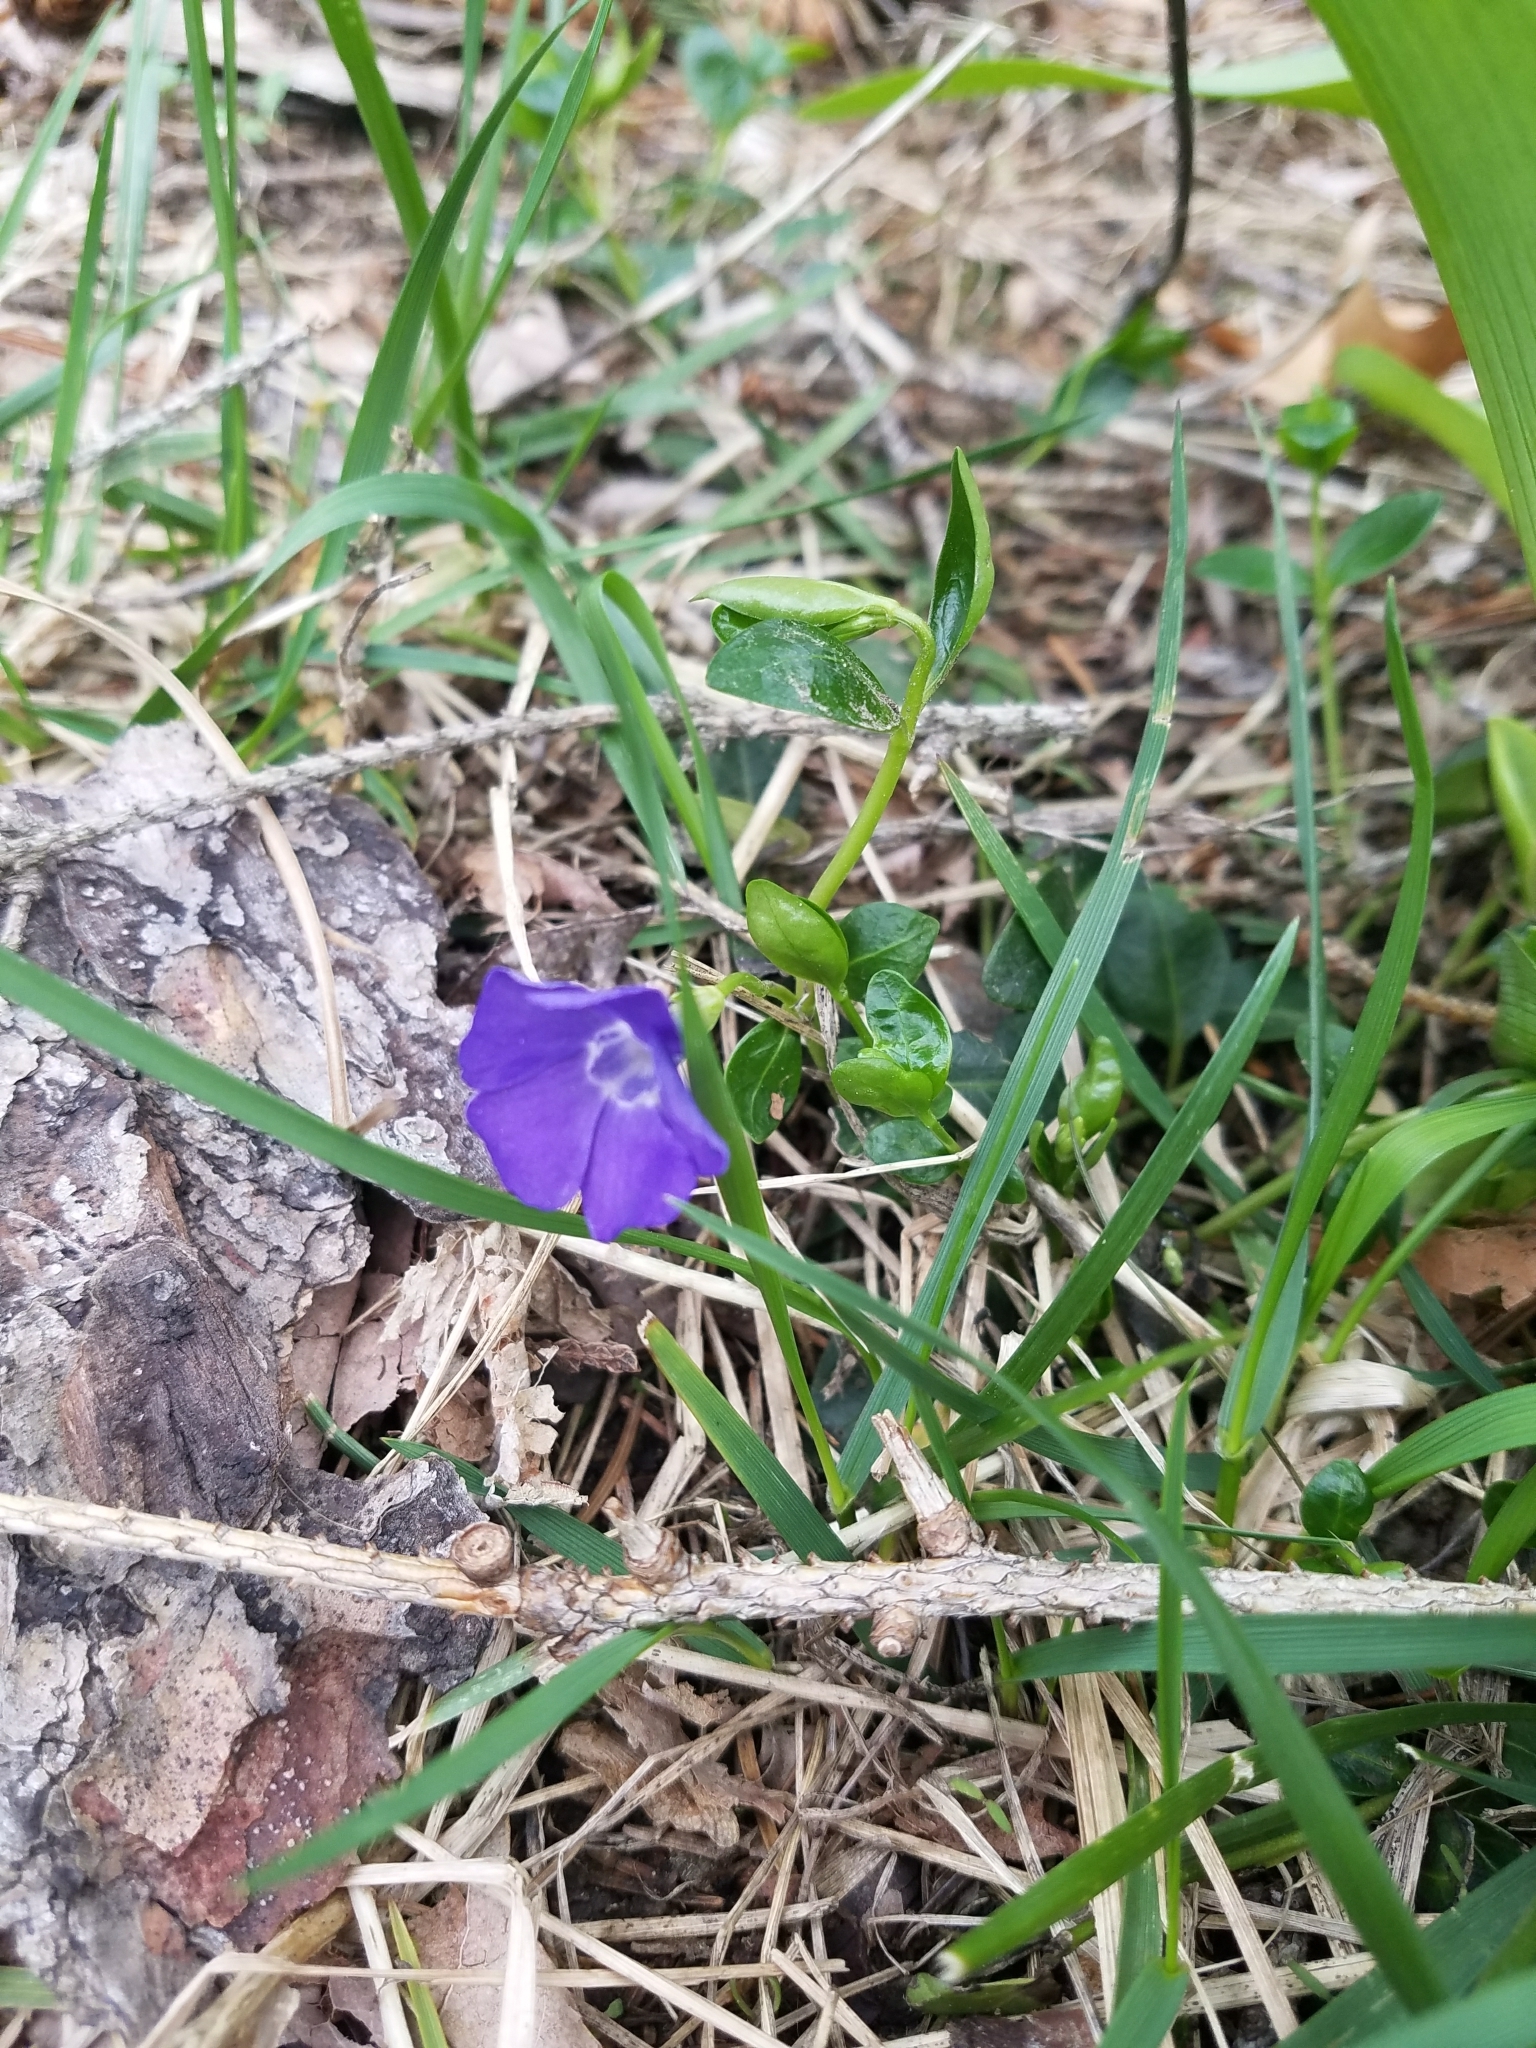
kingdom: Plantae
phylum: Tracheophyta
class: Magnoliopsida
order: Gentianales
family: Apocynaceae
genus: Vinca
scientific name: Vinca minor
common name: Lesser periwinkle
